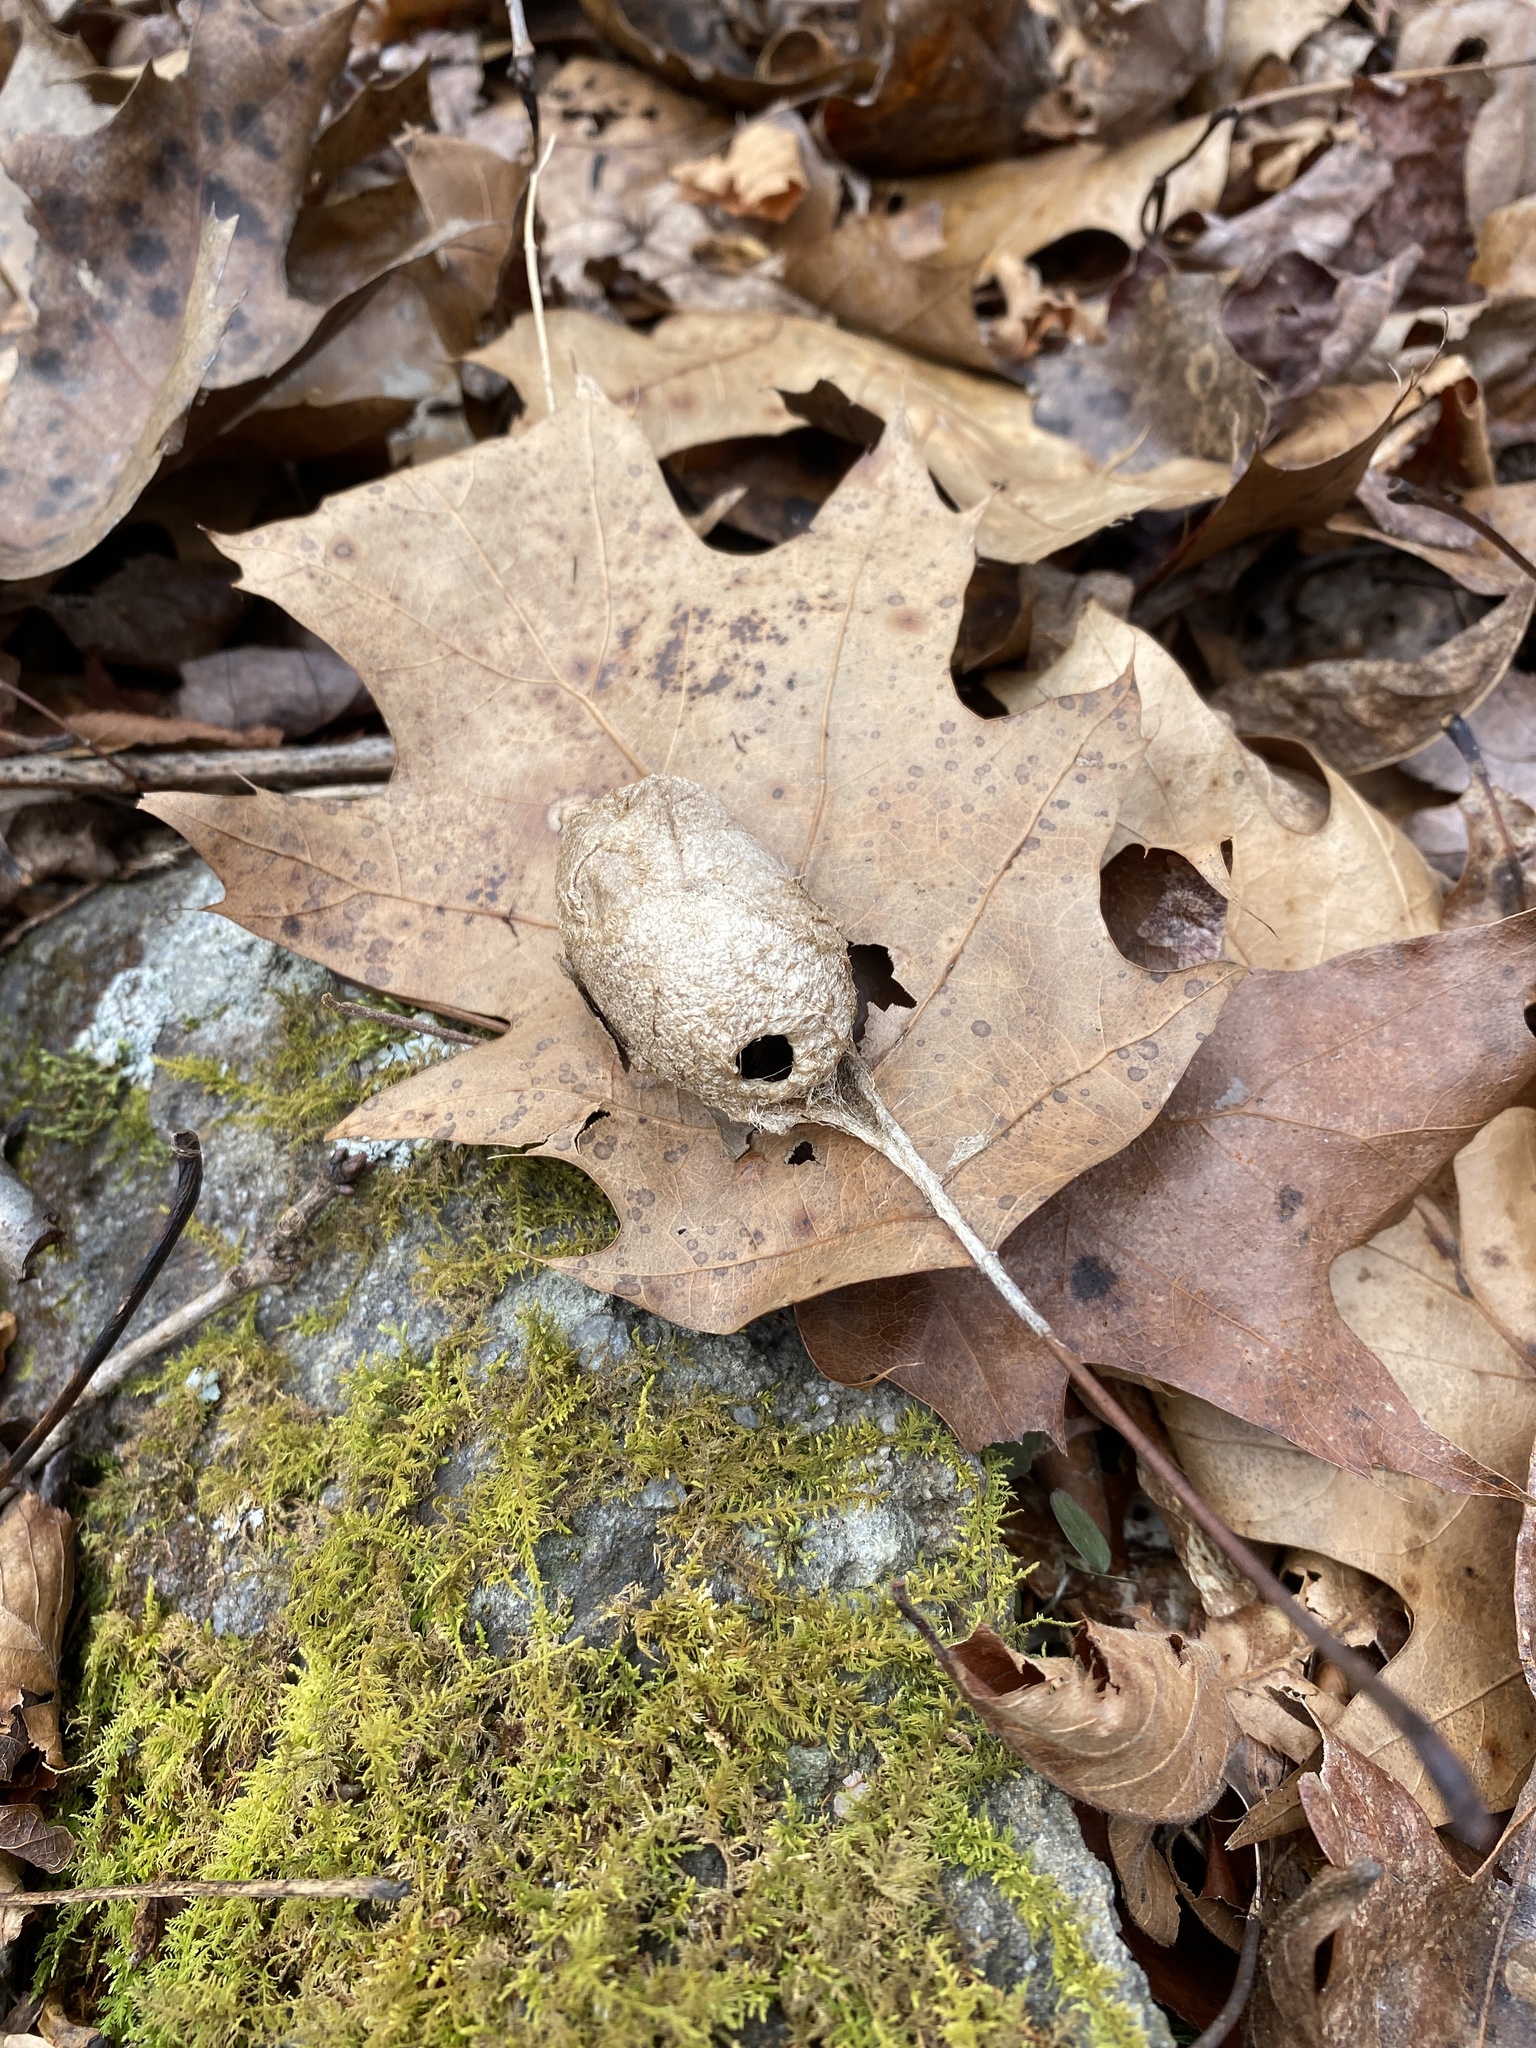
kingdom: Animalia
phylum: Arthropoda
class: Insecta
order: Lepidoptera
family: Saturniidae
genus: Antheraea
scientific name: Antheraea polyphemus
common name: Polyphemus moth
